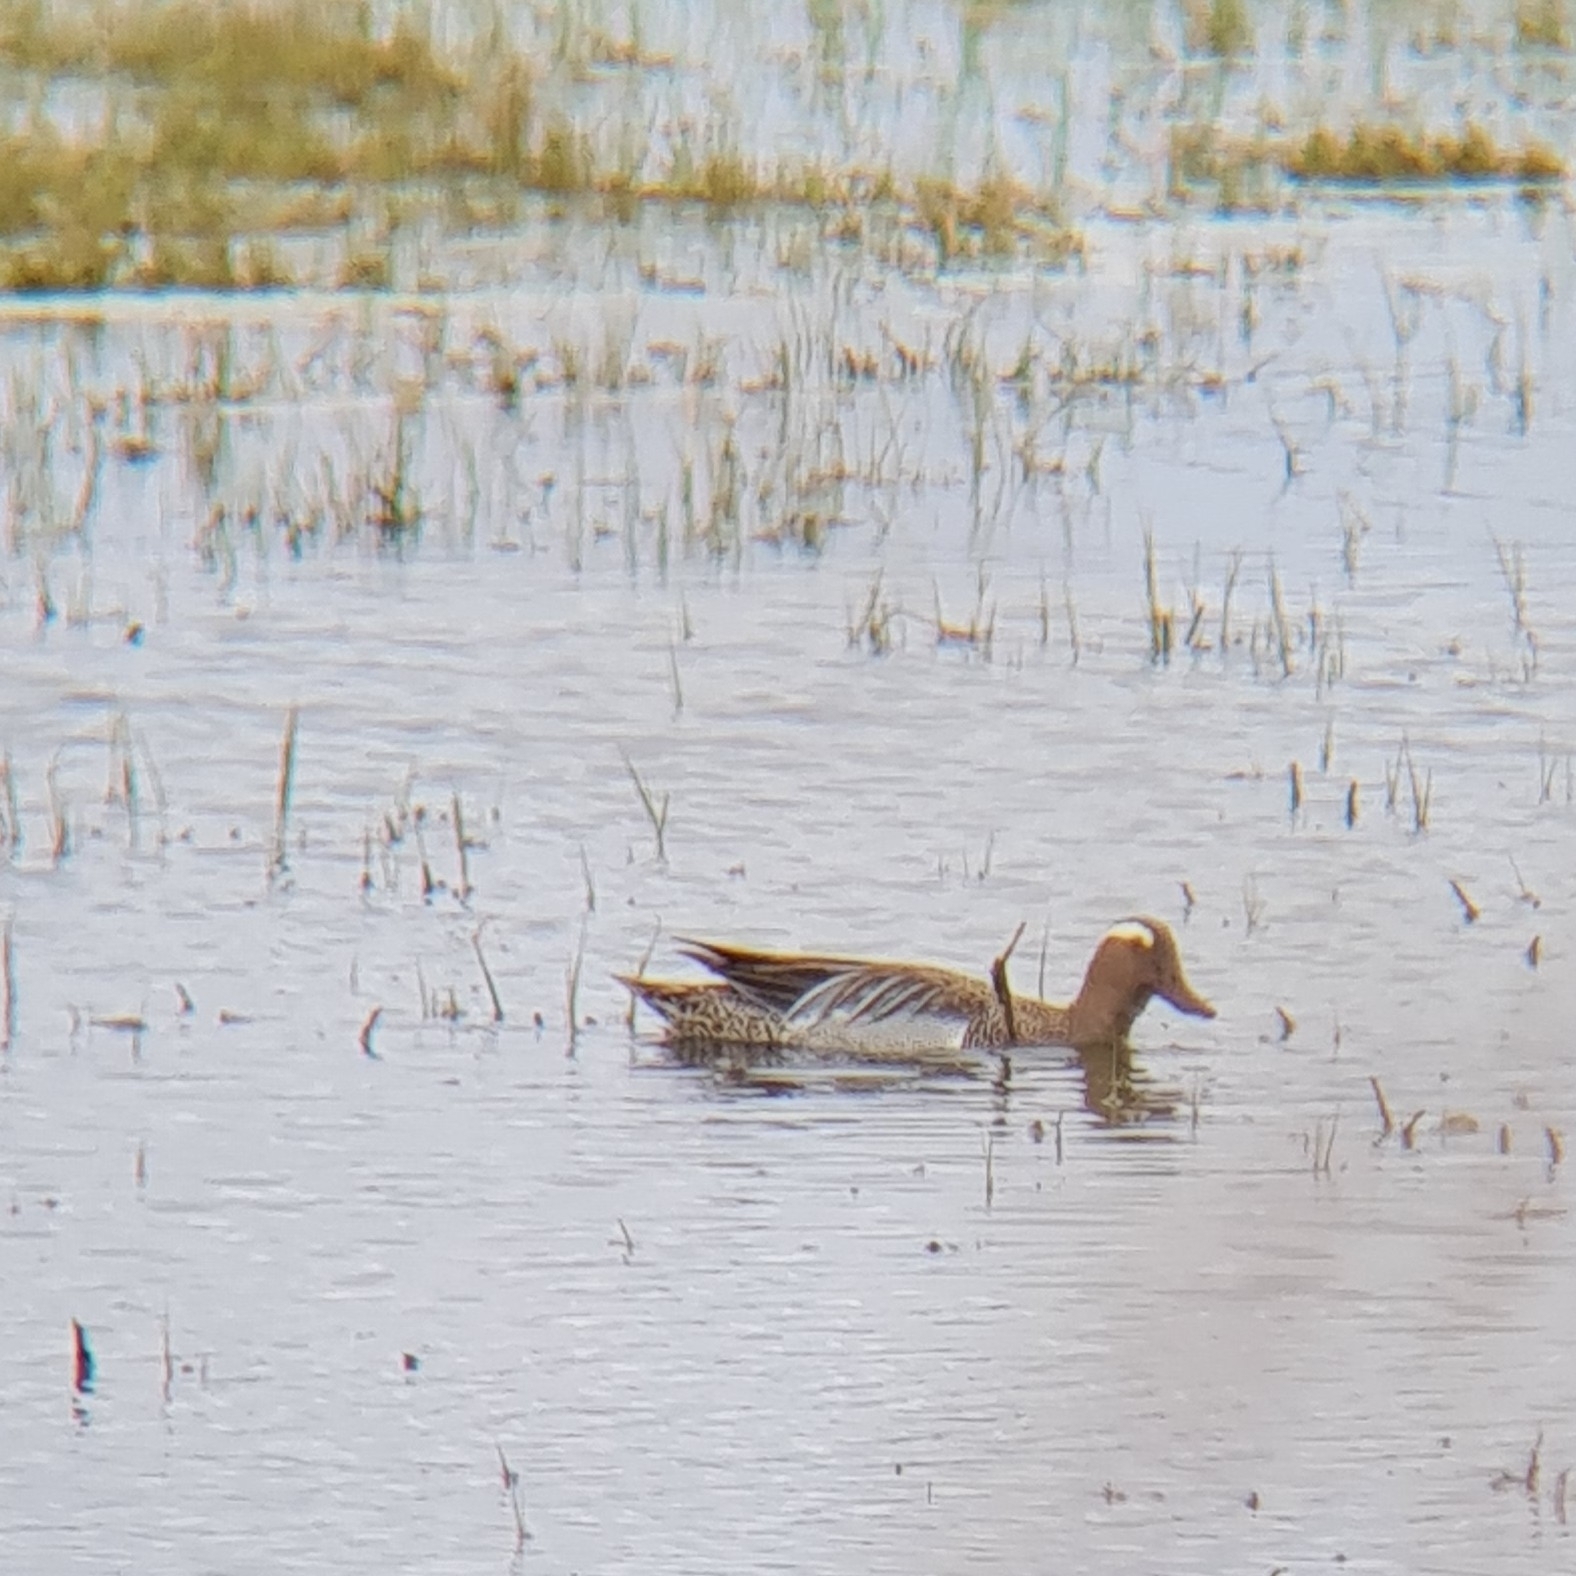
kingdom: Animalia
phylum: Chordata
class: Aves
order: Anseriformes
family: Anatidae
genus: Spatula
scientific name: Spatula querquedula
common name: Garganey
